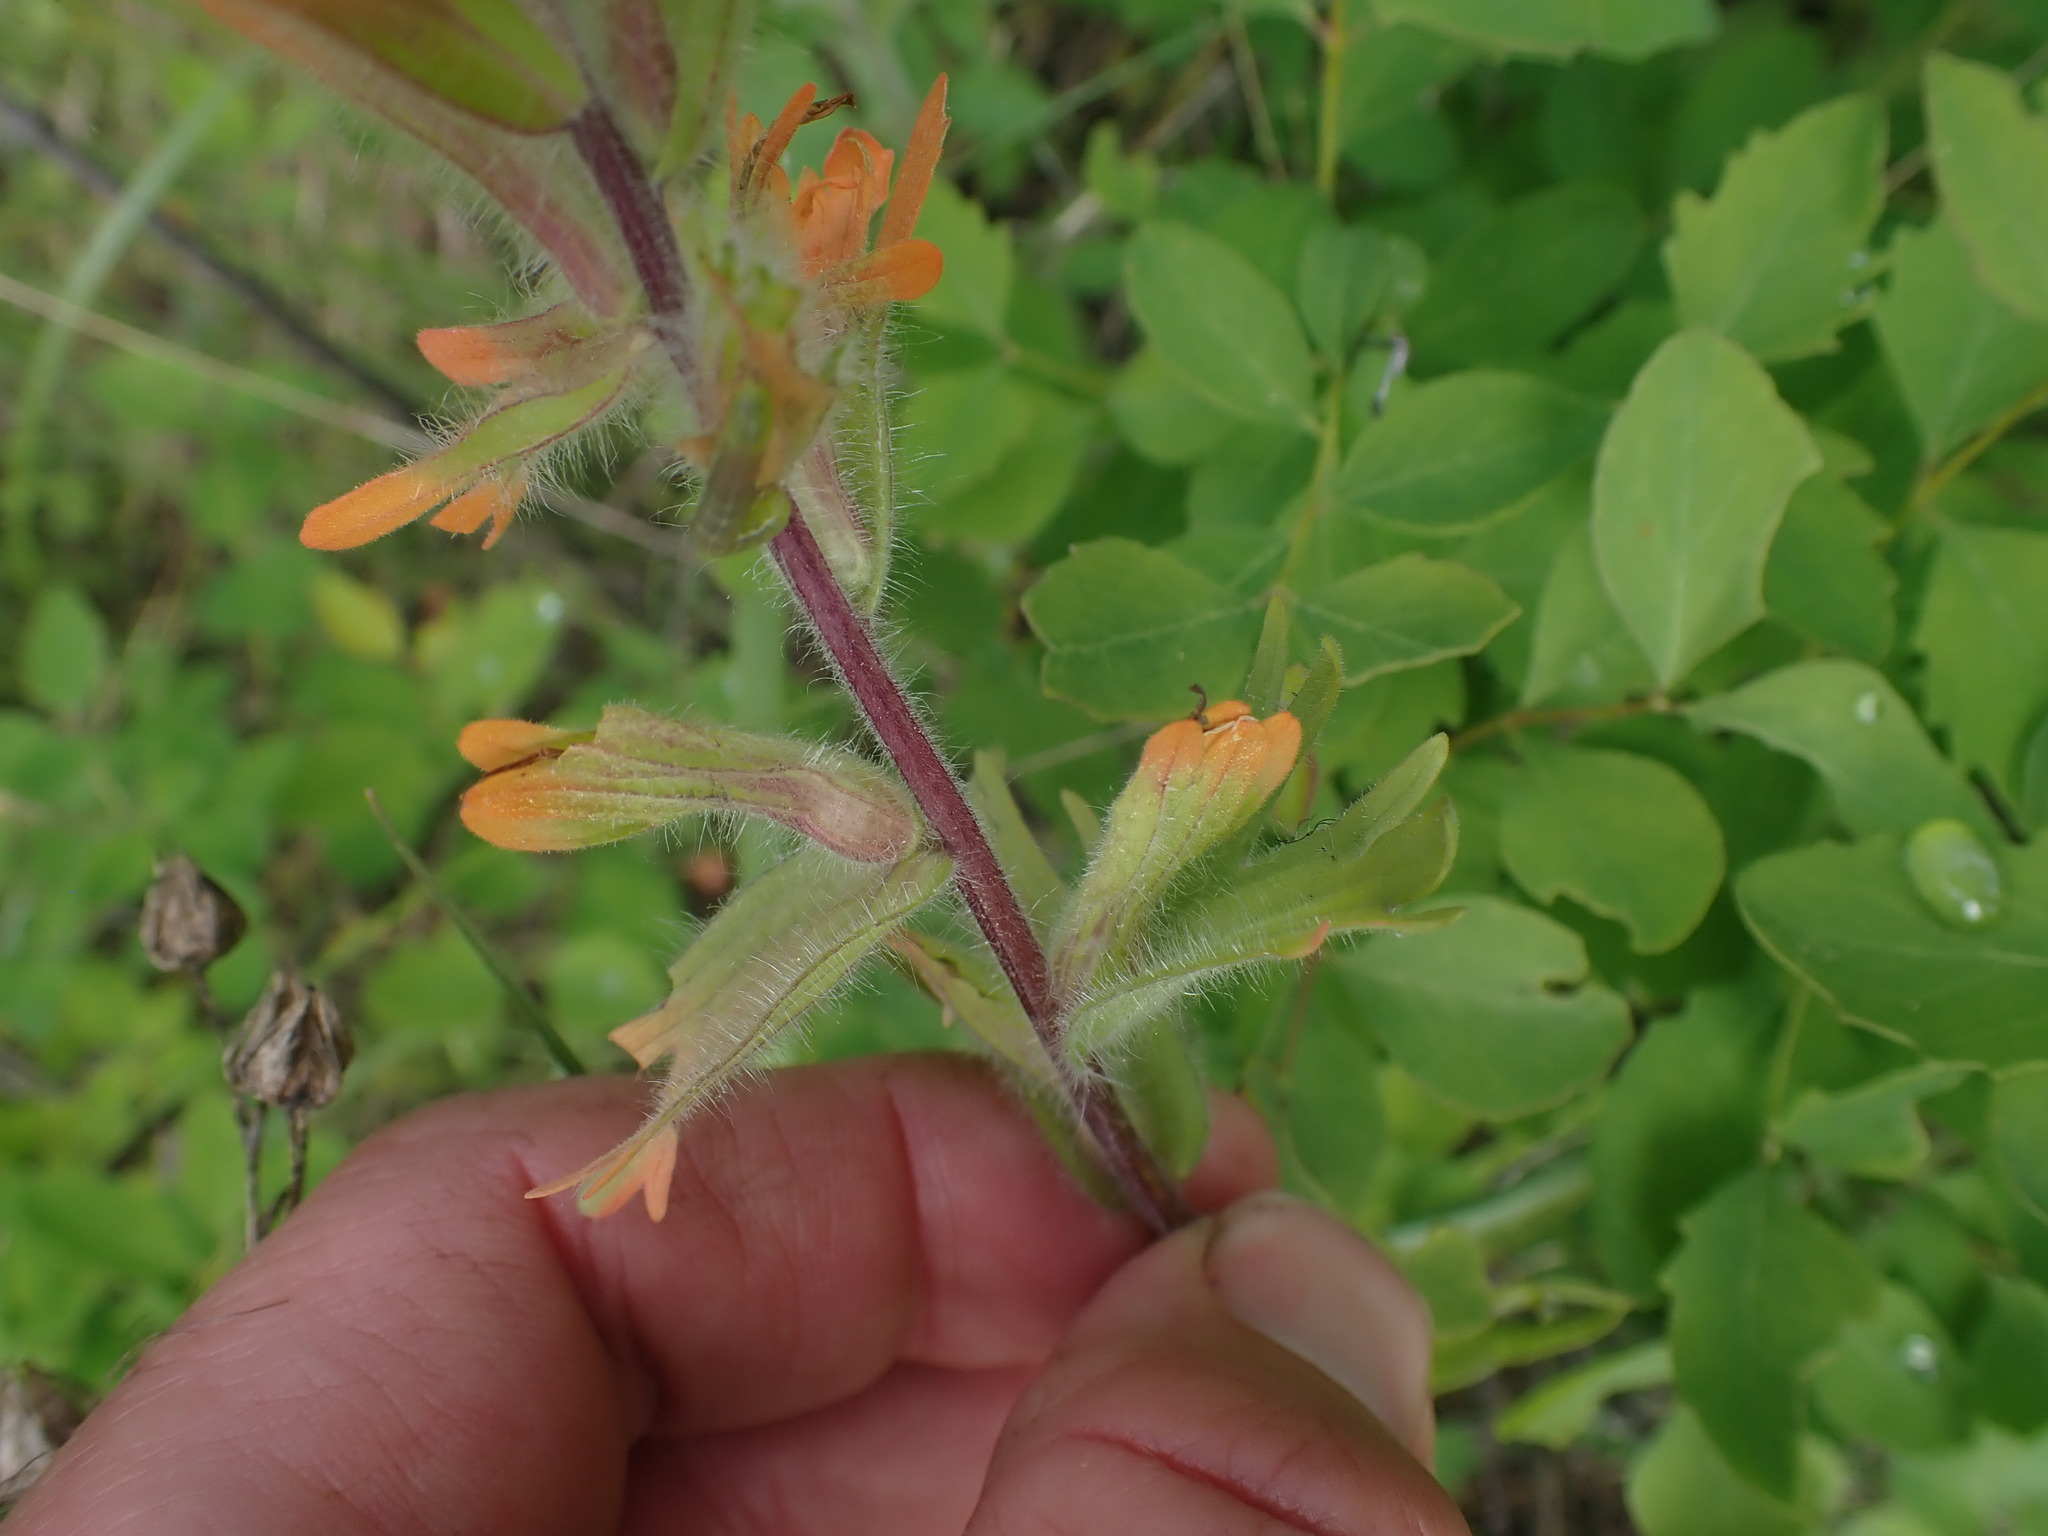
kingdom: Plantae
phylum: Tracheophyta
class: Magnoliopsida
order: Lamiales
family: Orobanchaceae
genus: Castilleja
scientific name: Castilleja hispida
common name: Bristly paintbrush
